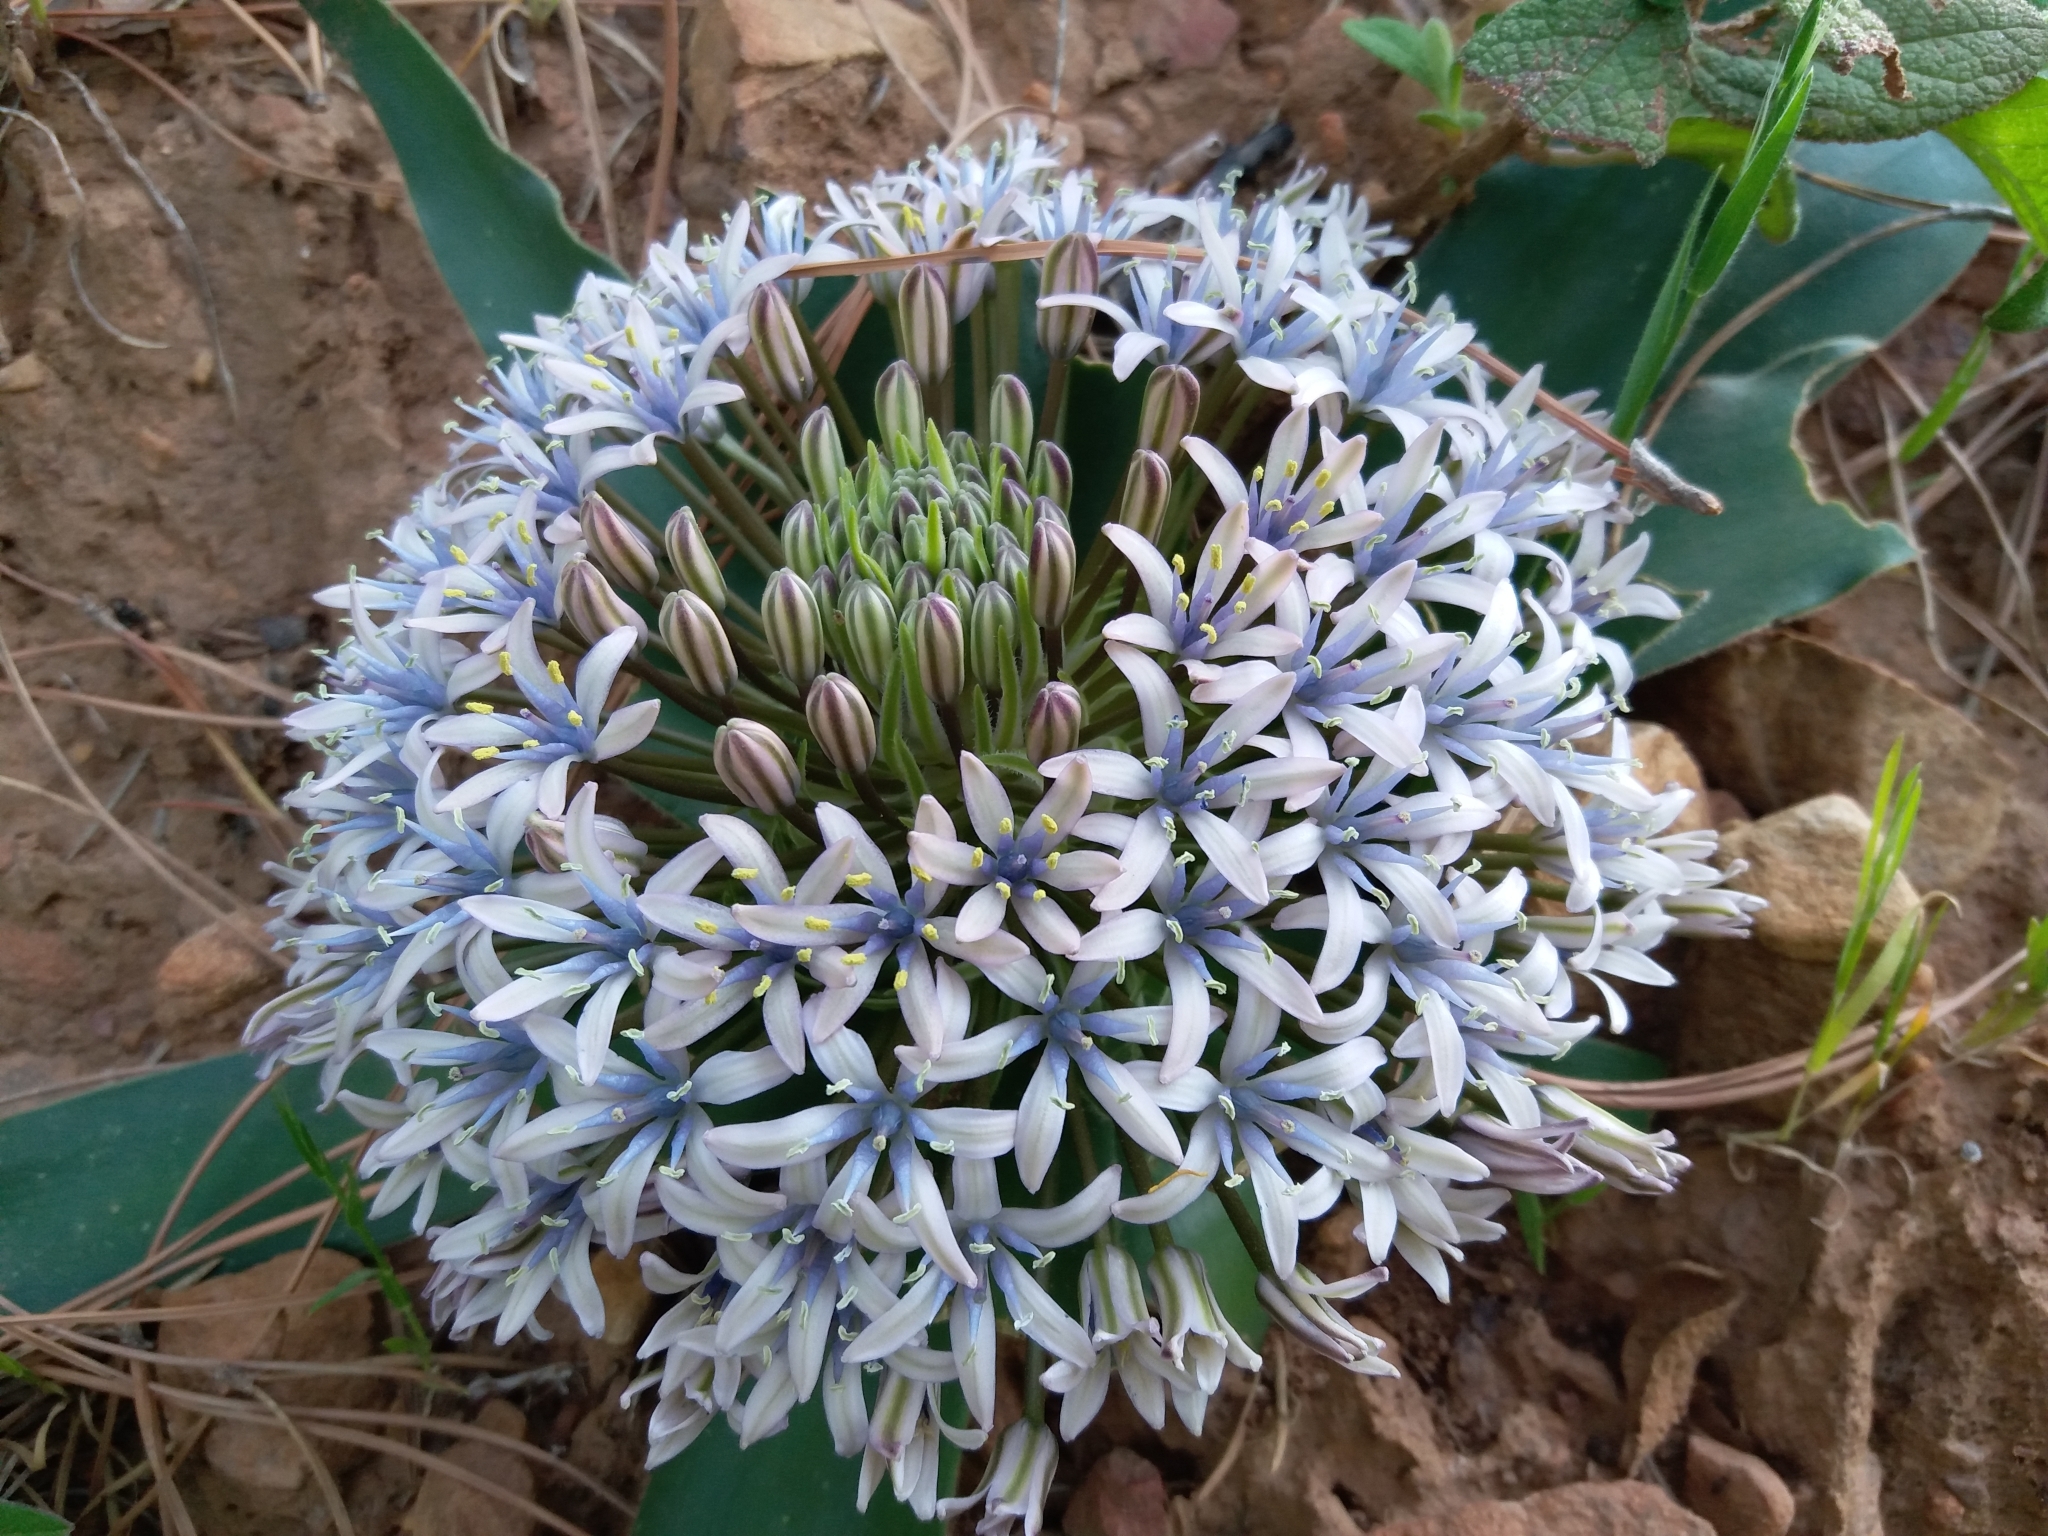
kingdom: Plantae
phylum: Tracheophyta
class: Liliopsida
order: Asparagales
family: Asparagaceae
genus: Scilla
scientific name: Scilla peruviana
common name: Portuguese squill
